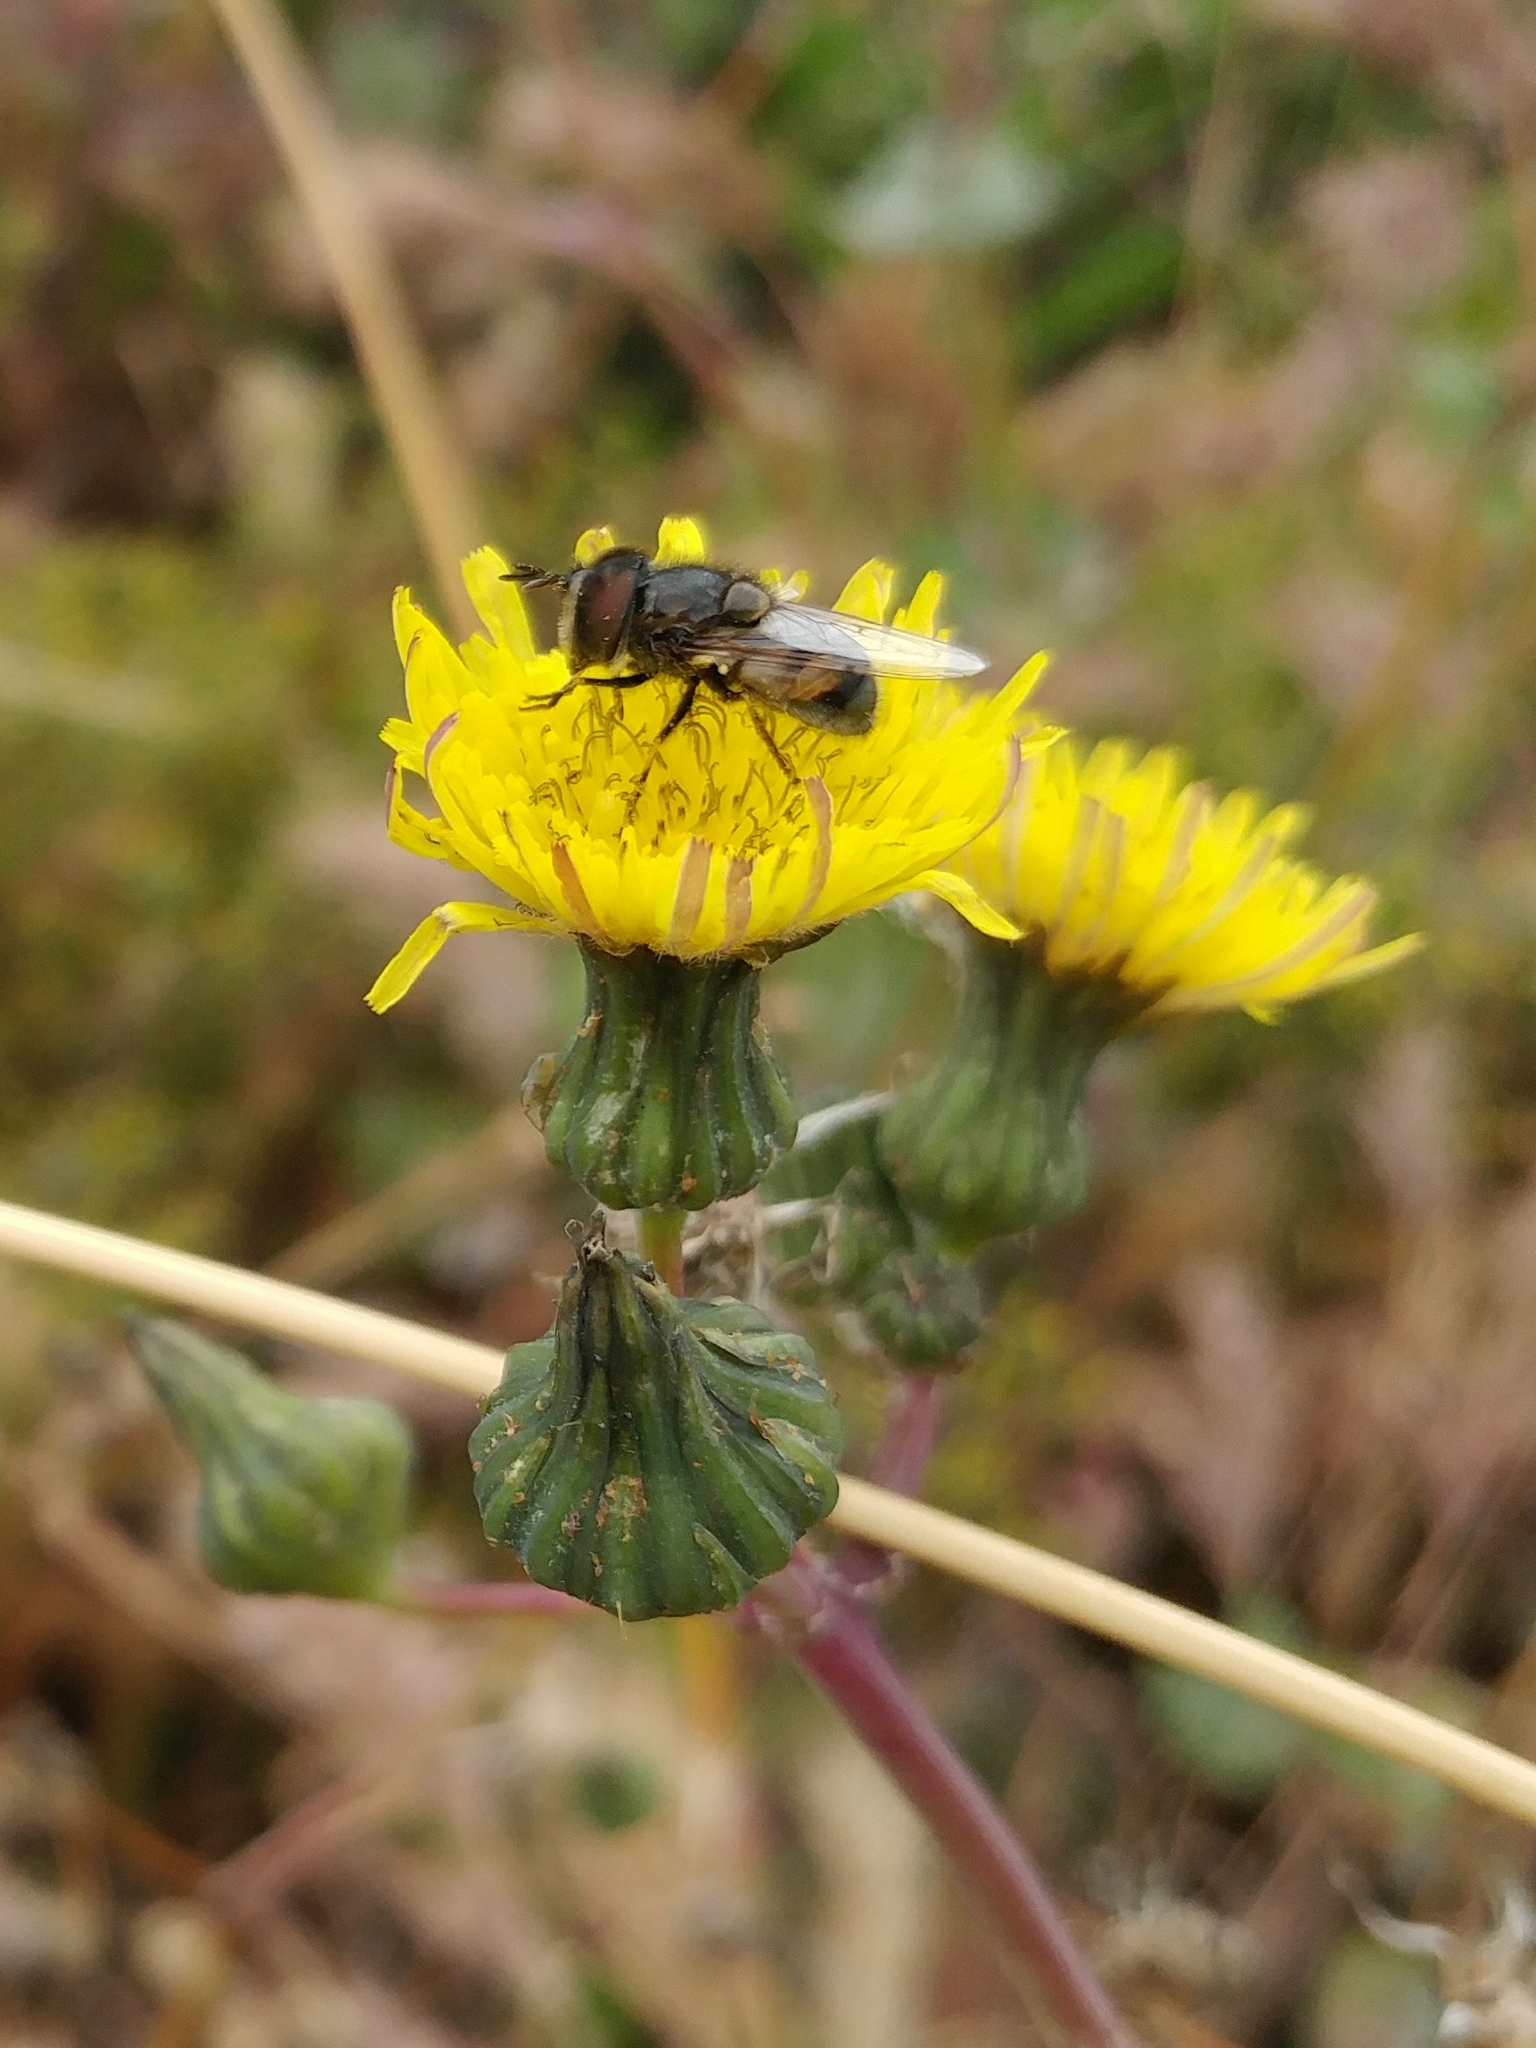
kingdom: Animalia
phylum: Arthropoda
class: Insecta
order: Diptera
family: Syrphidae
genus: Copestylum
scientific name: Copestylum lentum
